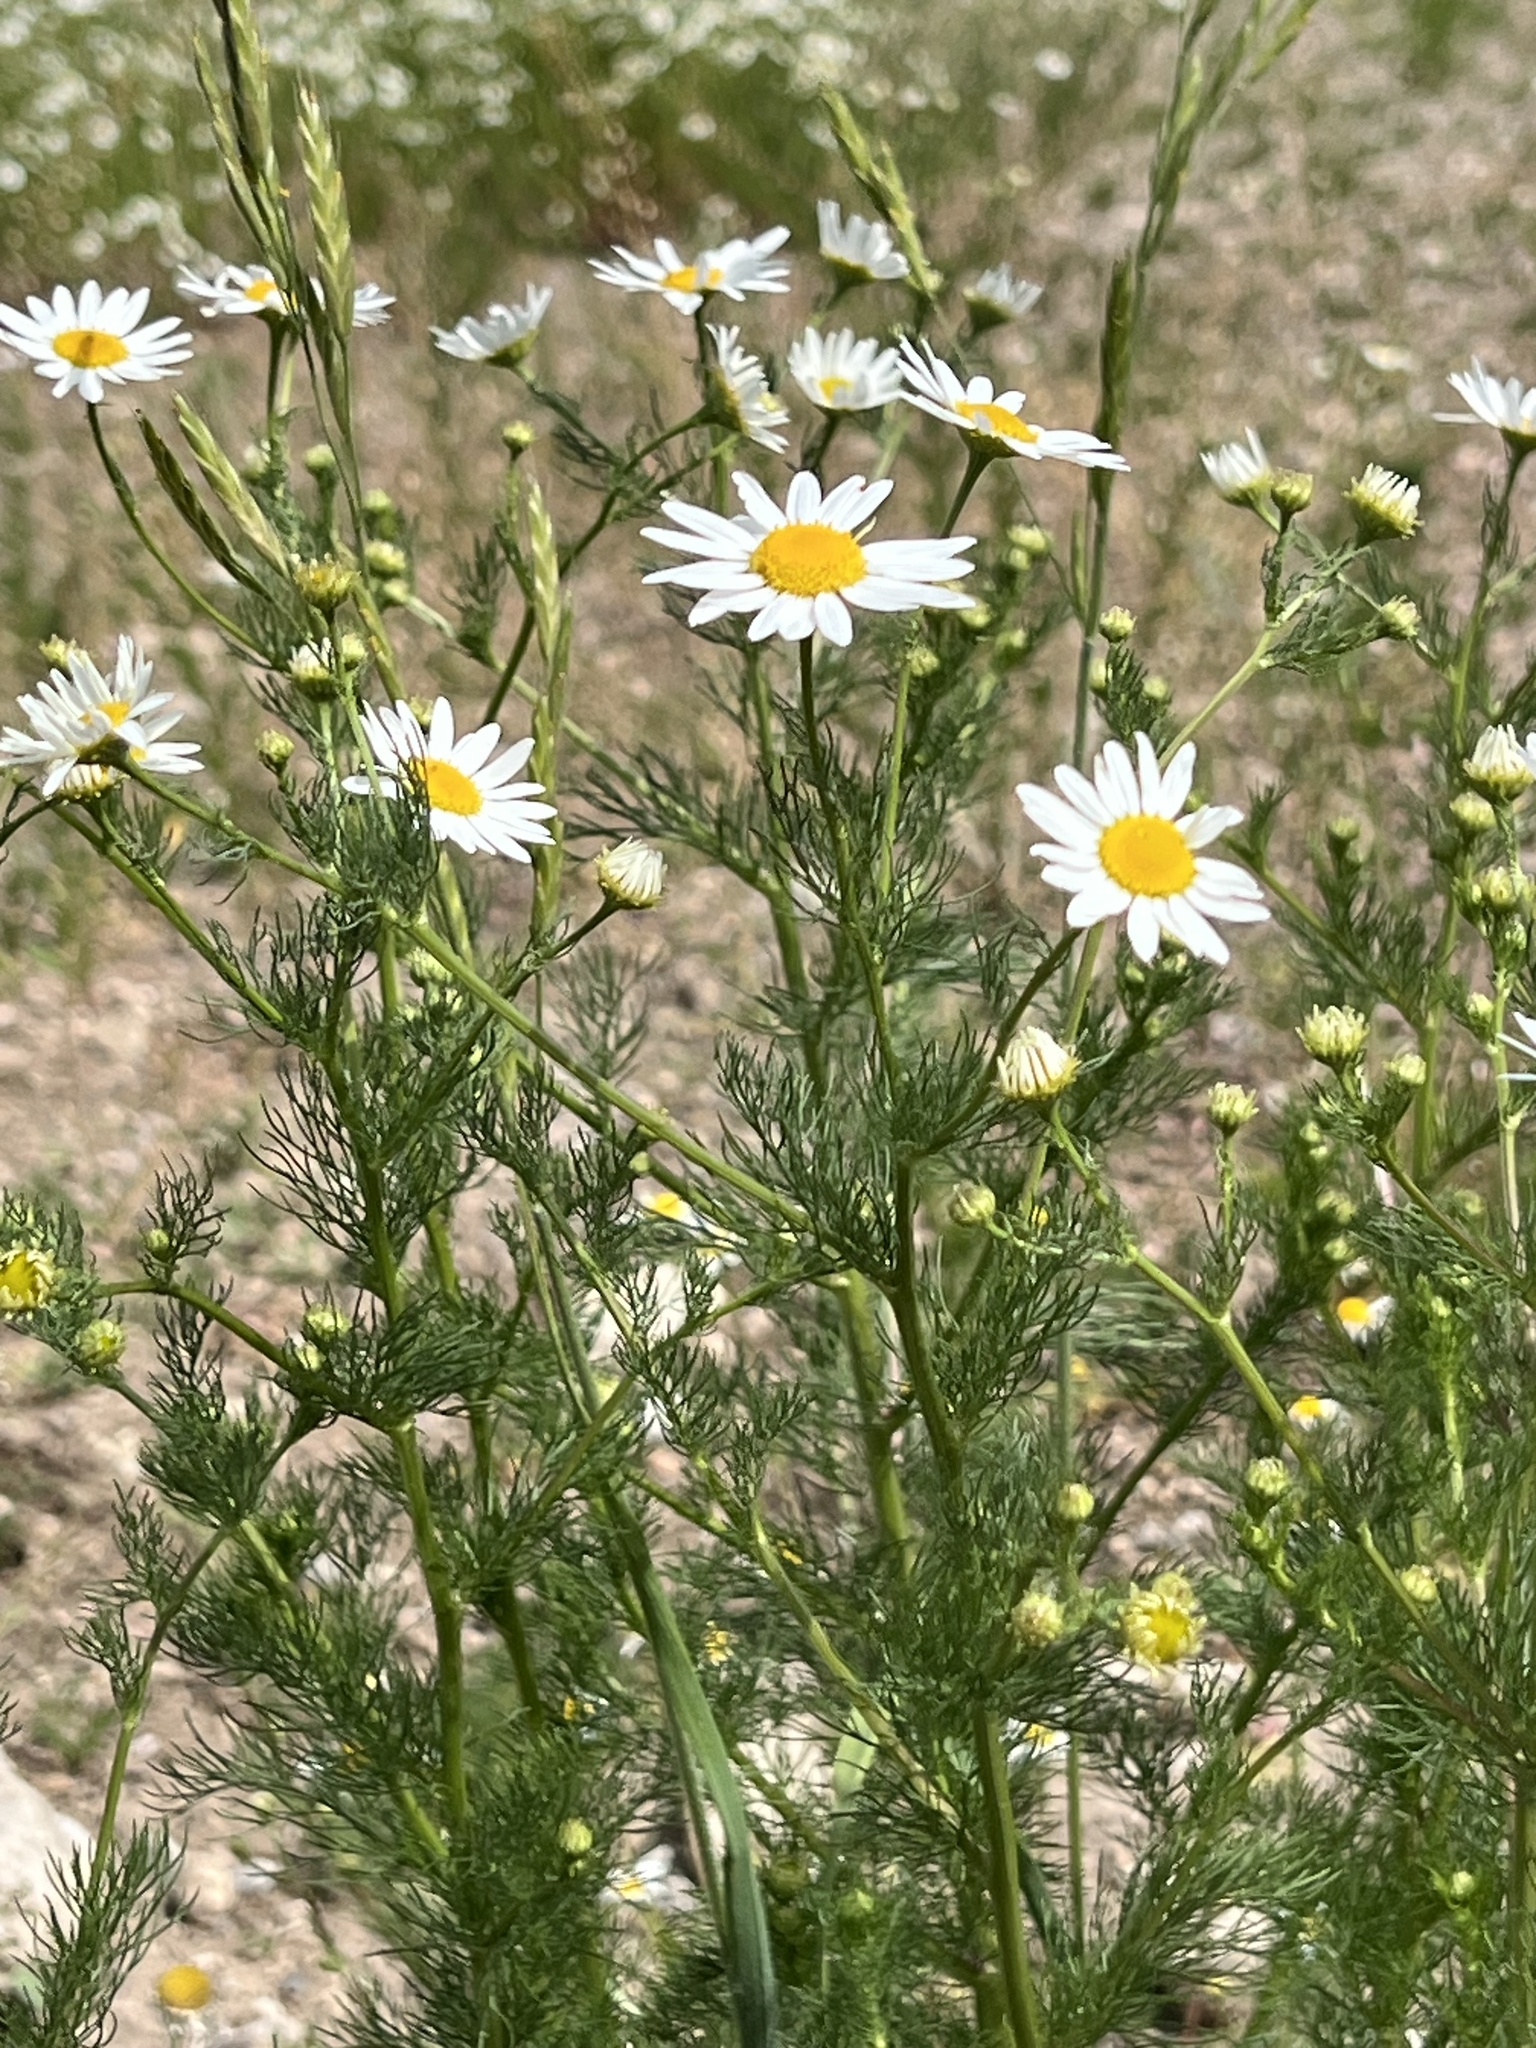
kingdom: Plantae
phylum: Tracheophyta
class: Magnoliopsida
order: Asterales
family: Asteraceae
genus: Tripleurospermum
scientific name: Tripleurospermum inodorum
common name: Scentless mayweed
